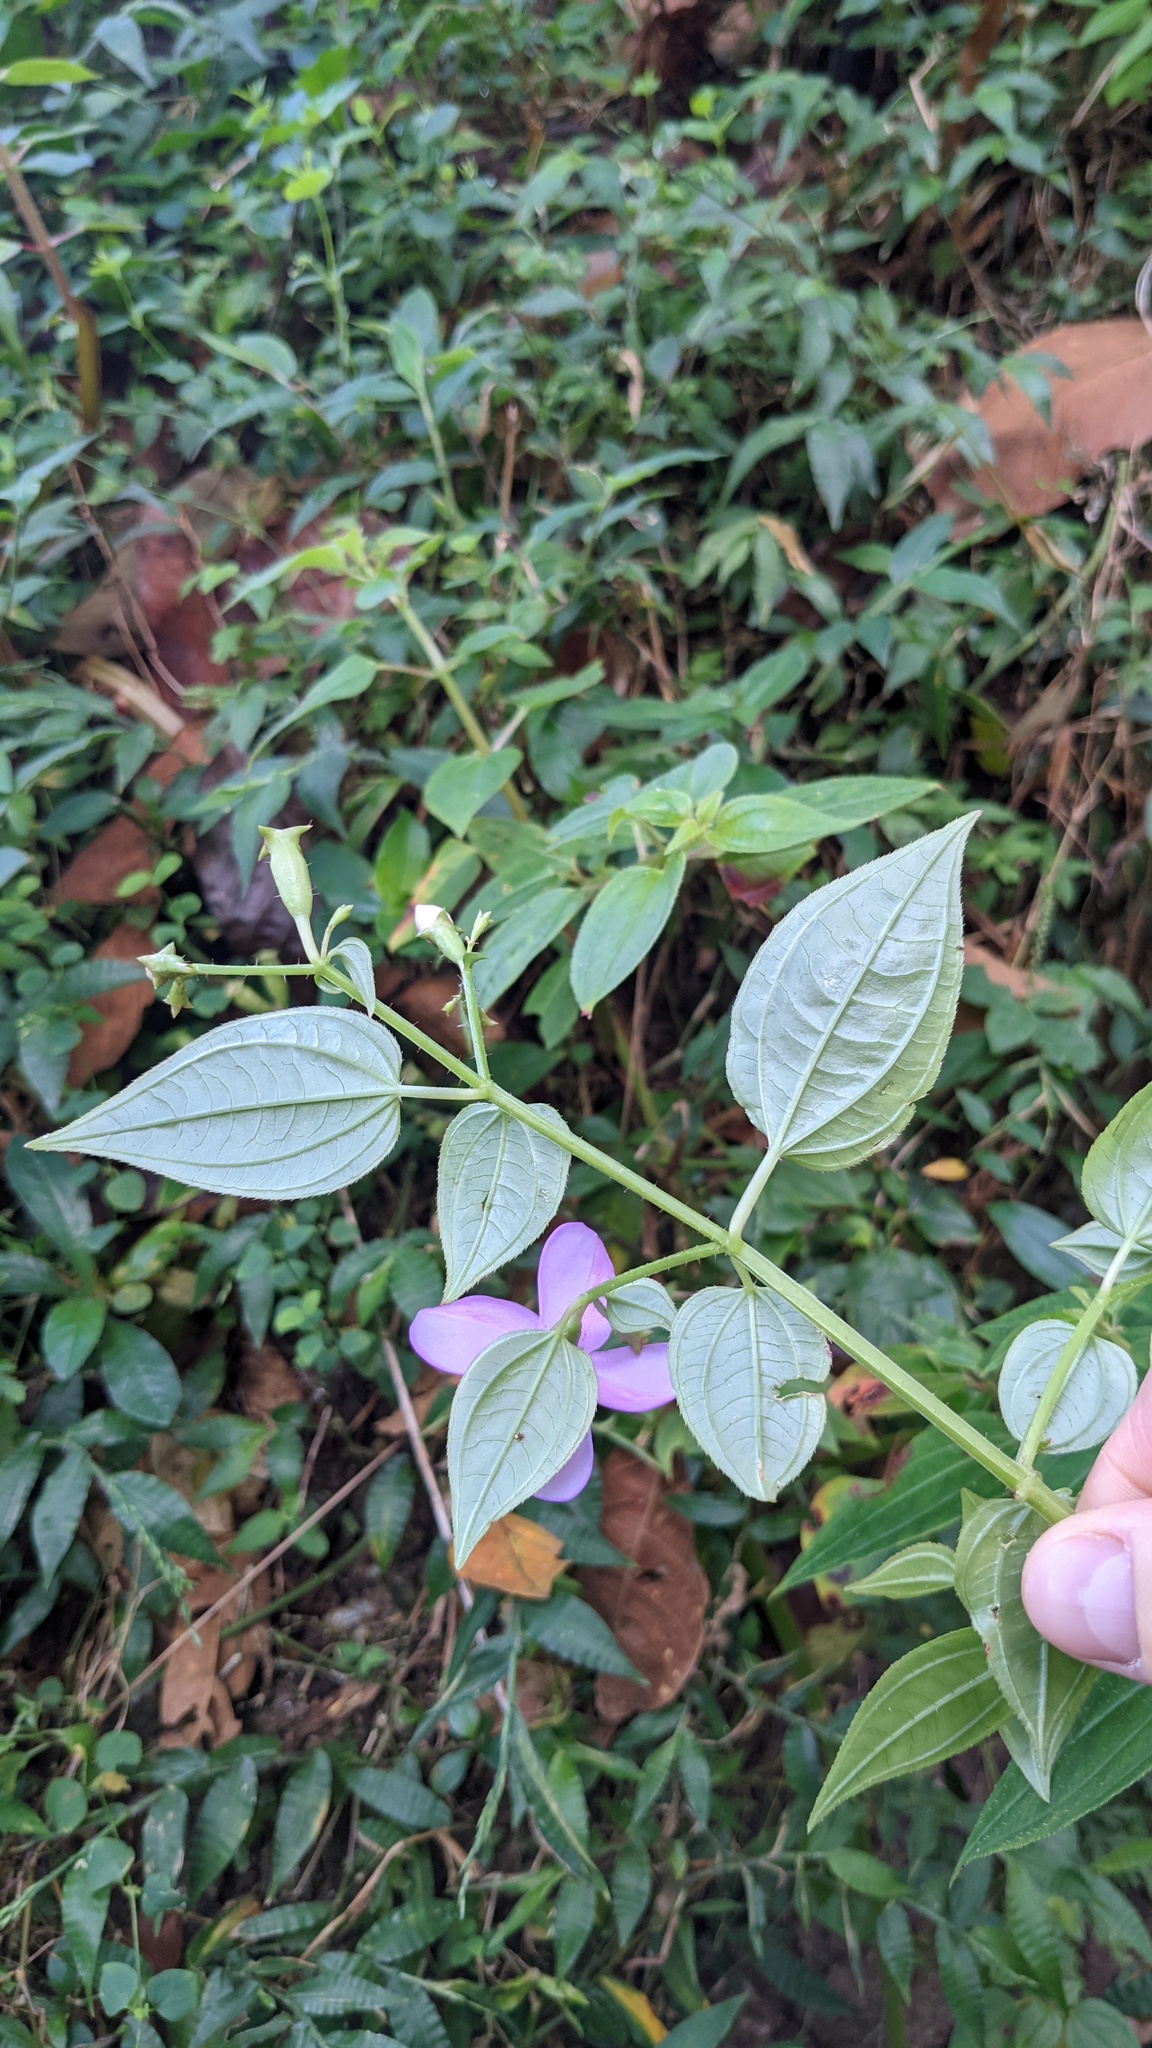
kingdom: Plantae
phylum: Tracheophyta
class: Magnoliopsida
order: Myrtales
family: Melastomataceae
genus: Arthrostemma
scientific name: Arthrostemma ciliatum
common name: Everblooming eavender
